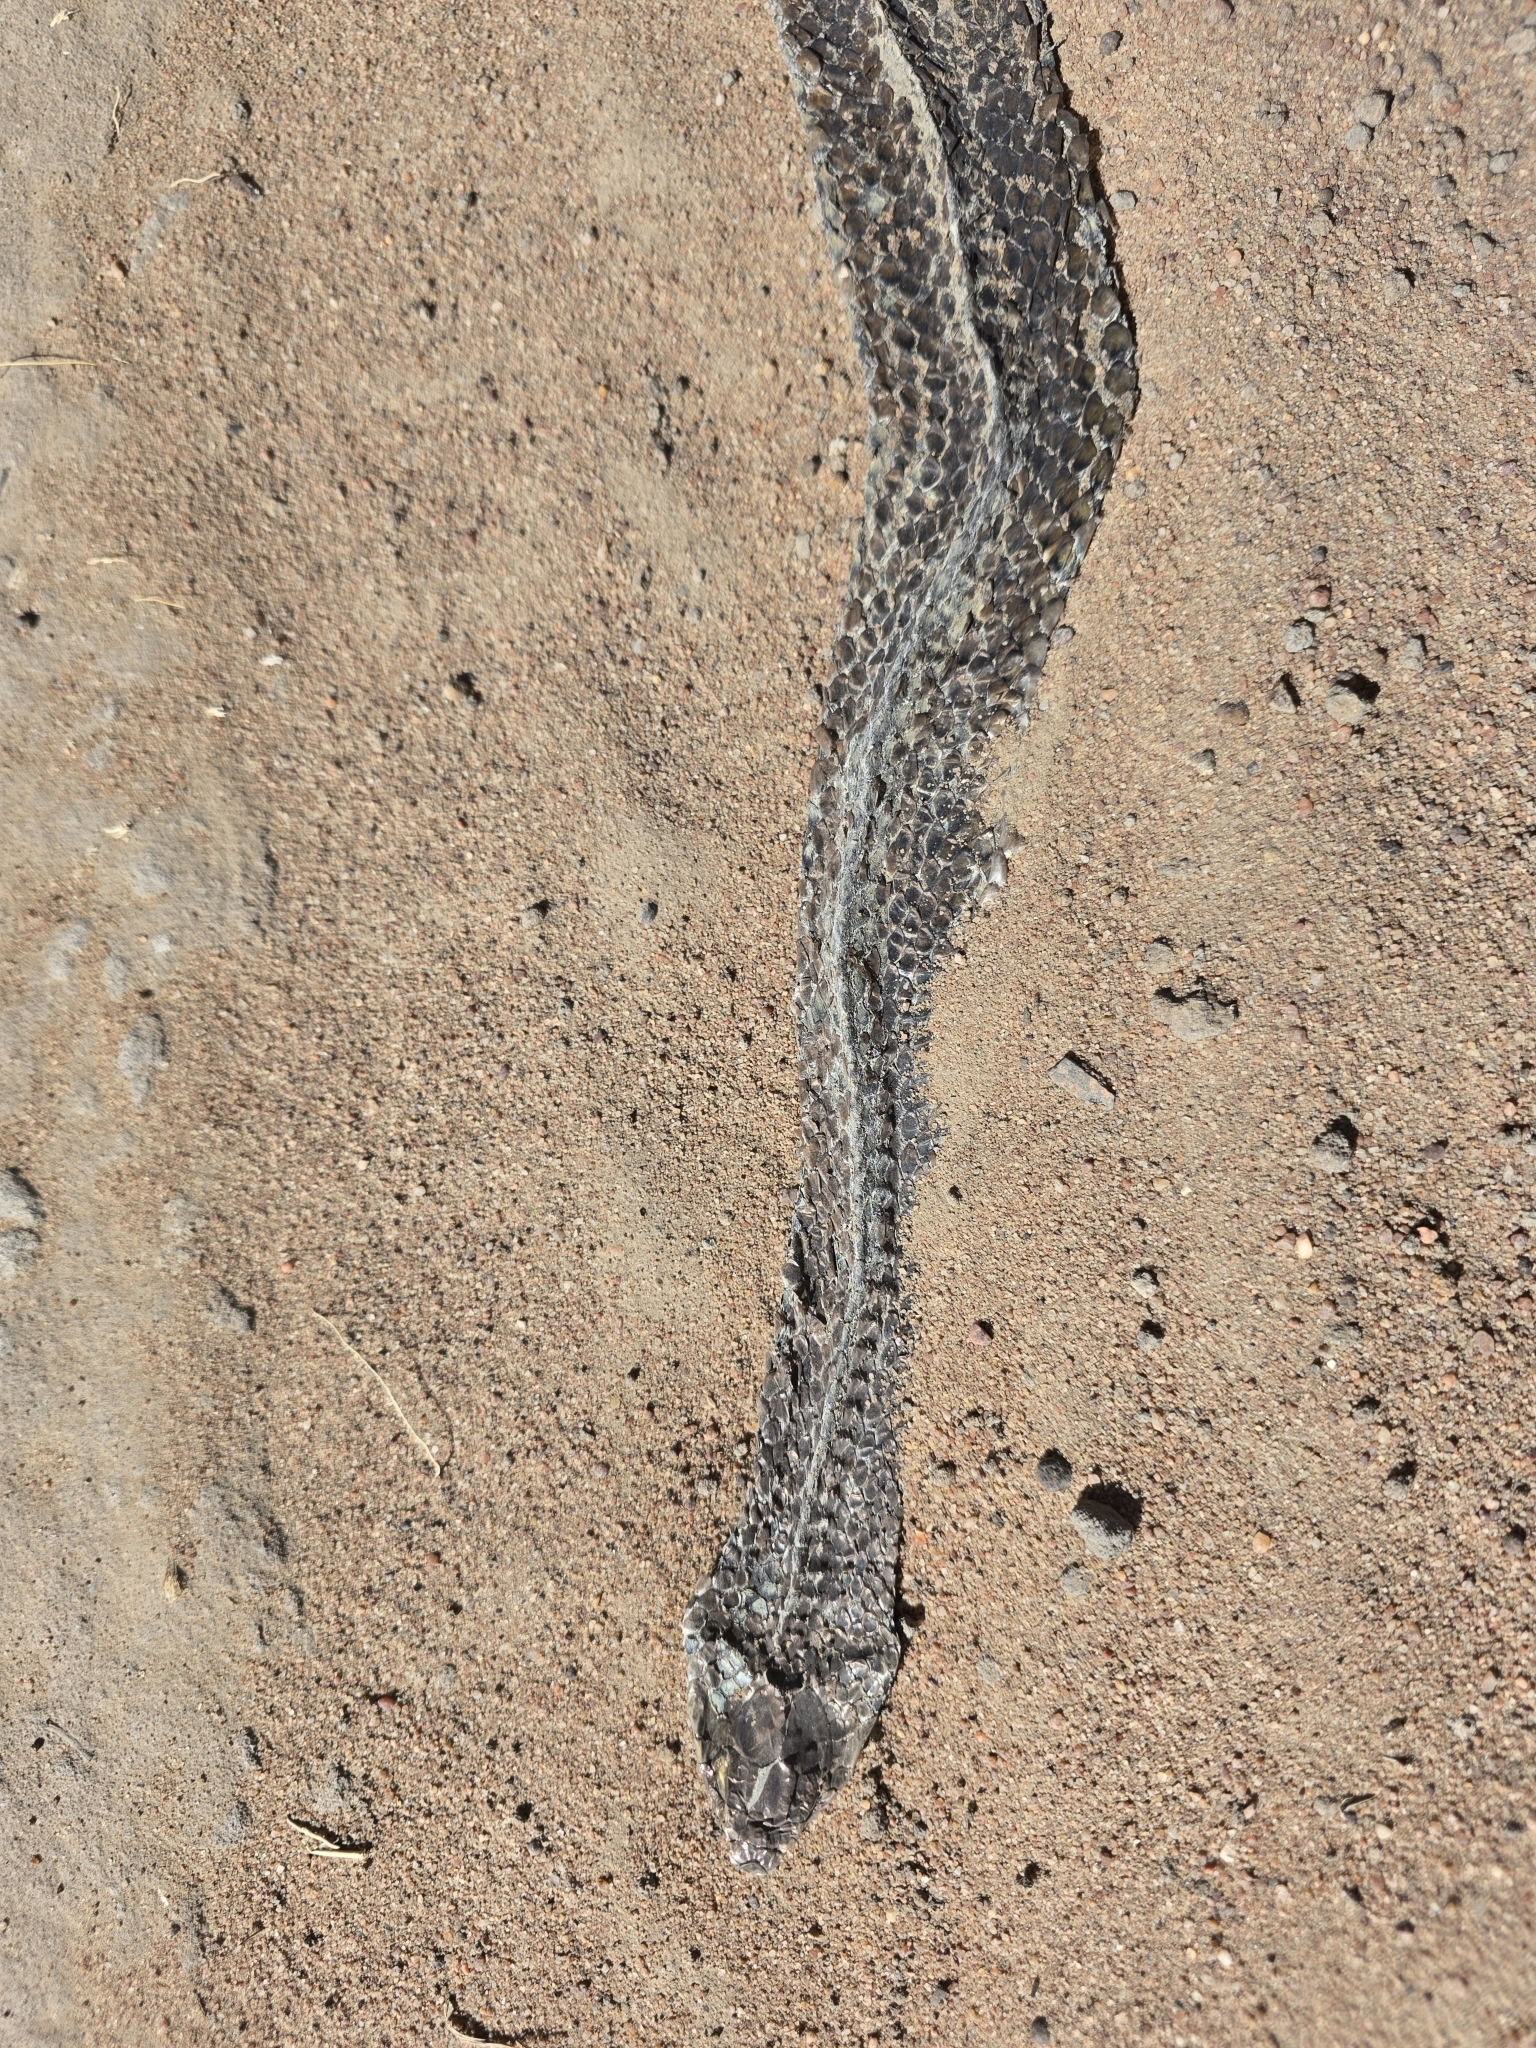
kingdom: Animalia
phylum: Chordata
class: Squamata
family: Elapidae
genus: Pseudonaja
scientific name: Pseudonaja textilis
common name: Eastern brown snake
